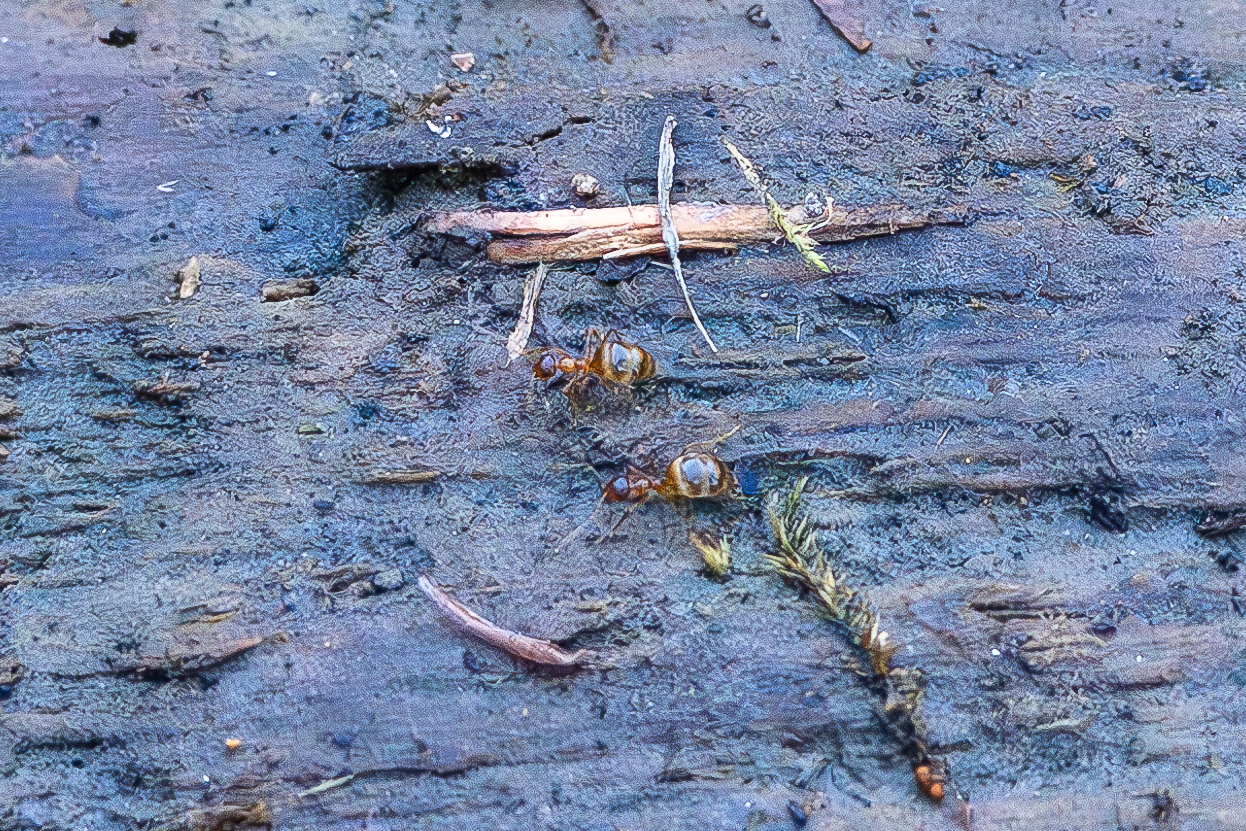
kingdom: Animalia
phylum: Arthropoda
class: Insecta
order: Hymenoptera
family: Formicidae
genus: Prenolepis
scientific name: Prenolepis imparis
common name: Small honey ant
